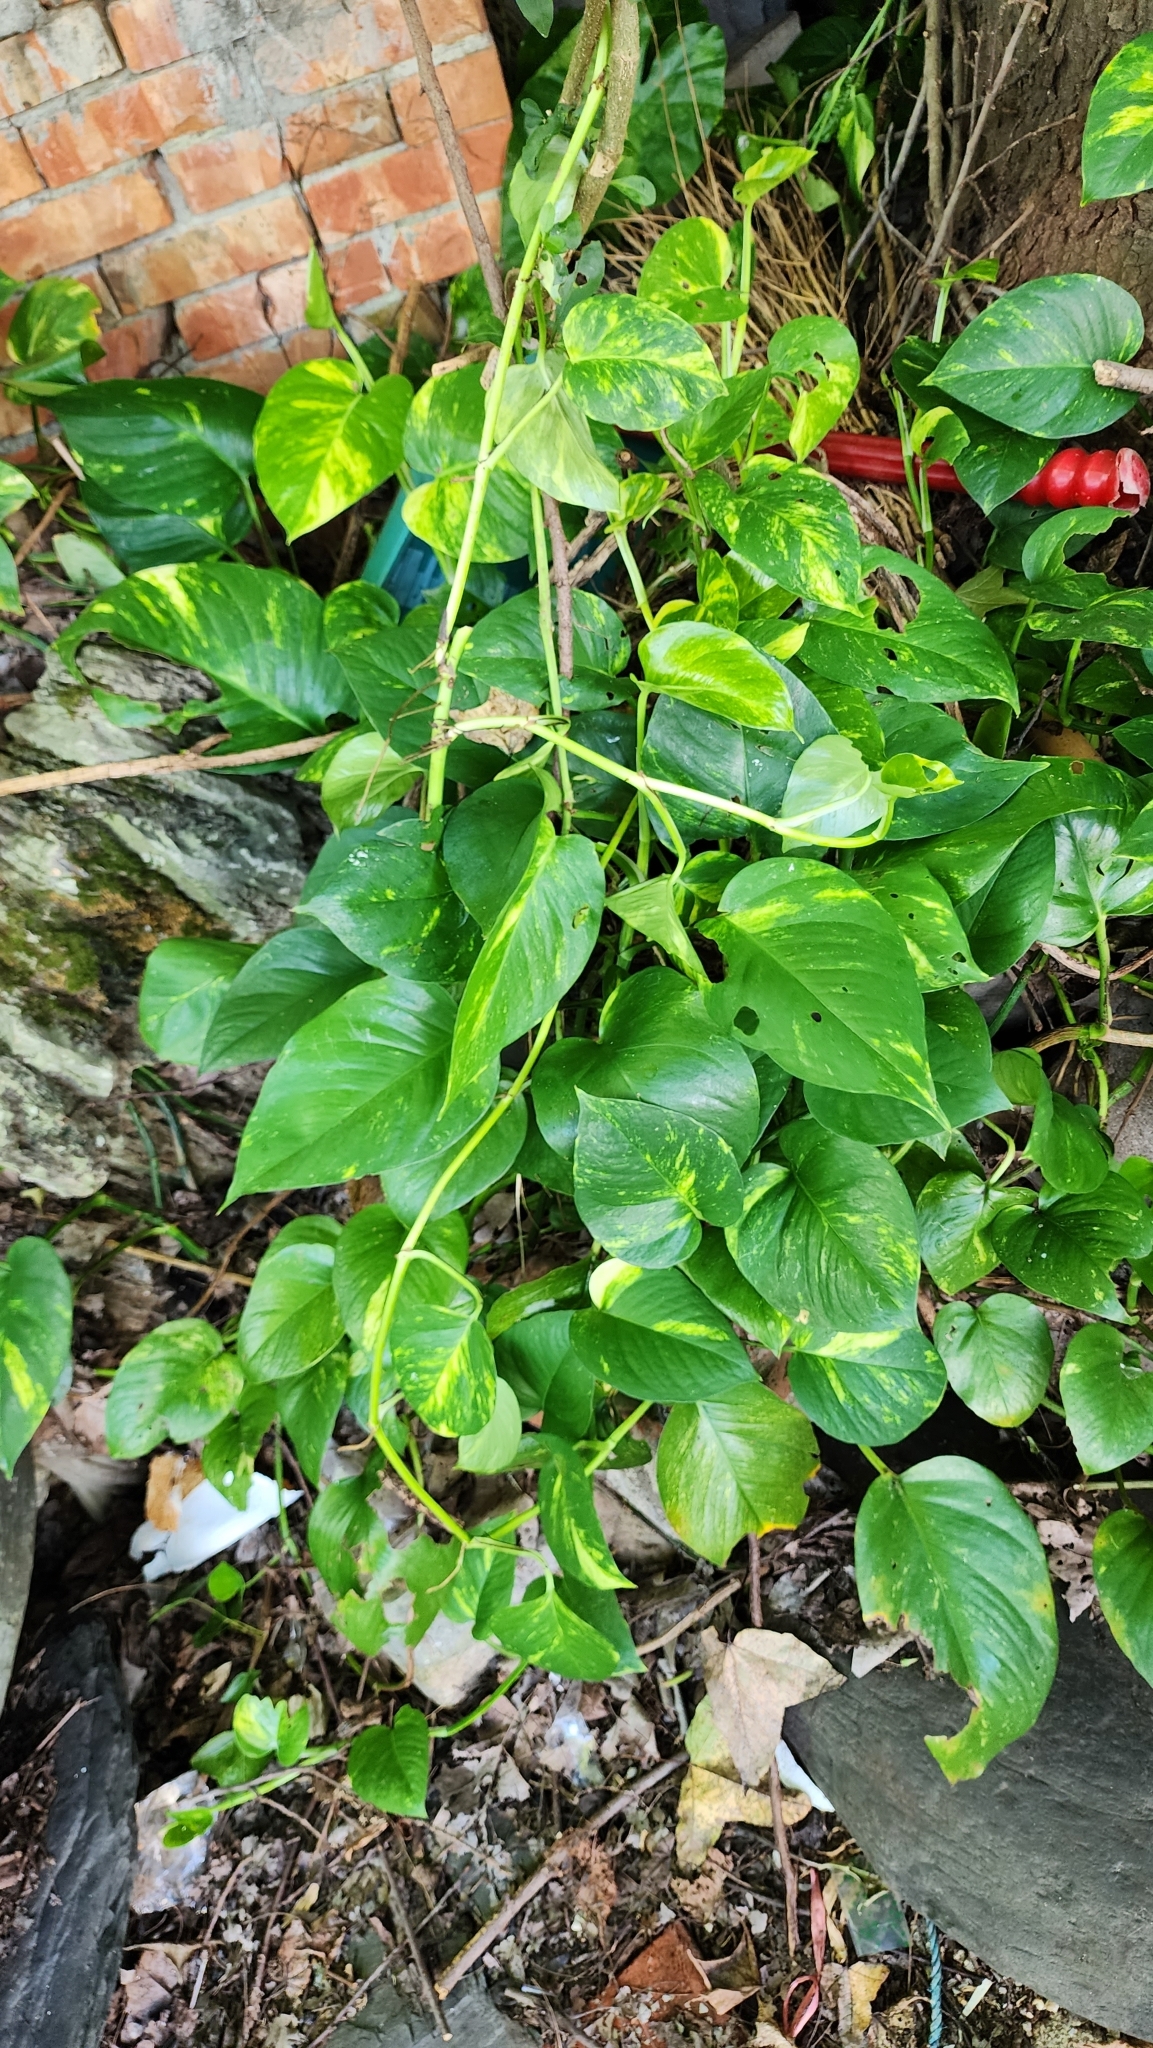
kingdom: Plantae
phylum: Tracheophyta
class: Liliopsida
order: Alismatales
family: Araceae
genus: Epipremnum
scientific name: Epipremnum aureum
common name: Golden hunter's-robe
